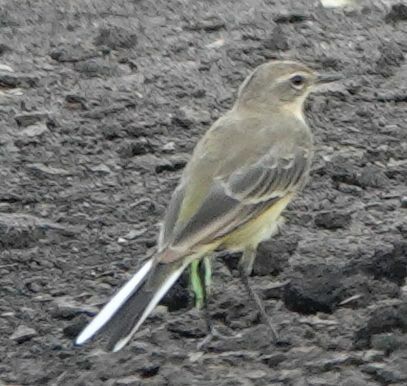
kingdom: Animalia
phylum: Chordata
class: Aves
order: Passeriformes
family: Motacillidae
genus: Motacilla
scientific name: Motacilla flava
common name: Western yellow wagtail
